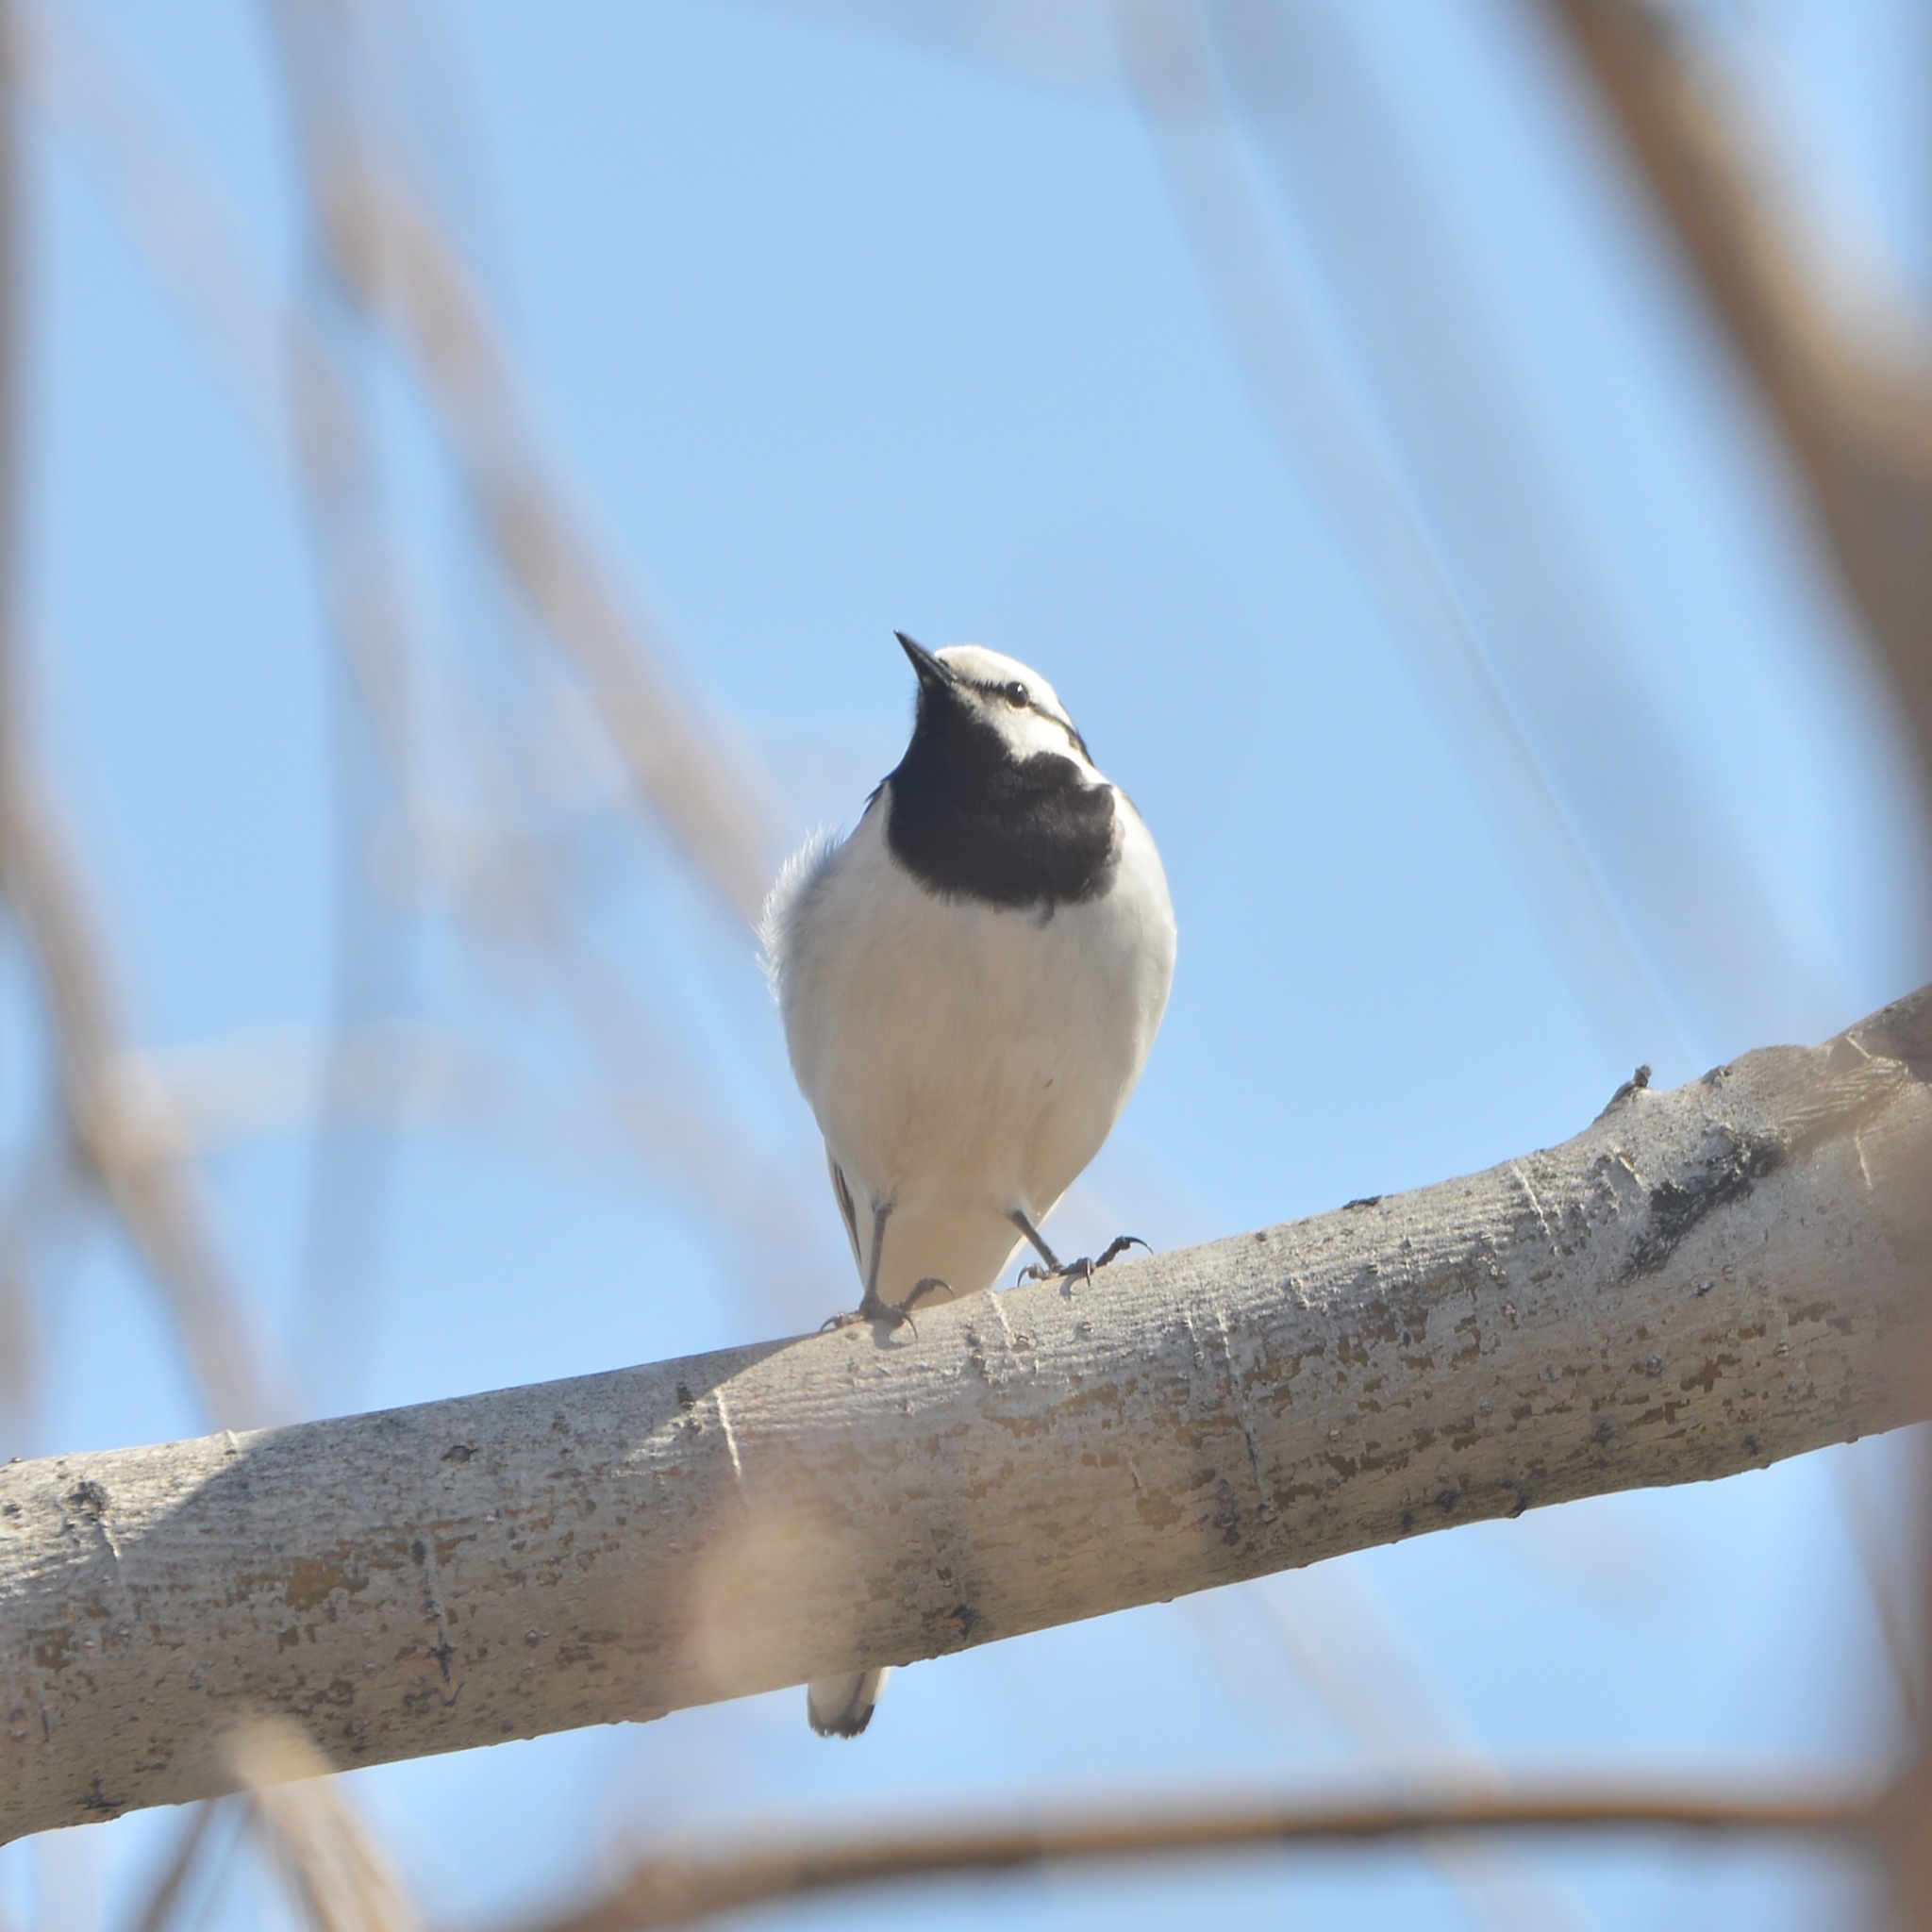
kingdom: Animalia
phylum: Chordata
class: Aves
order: Passeriformes
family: Motacillidae
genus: Motacilla
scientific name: Motacilla alba
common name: White wagtail
